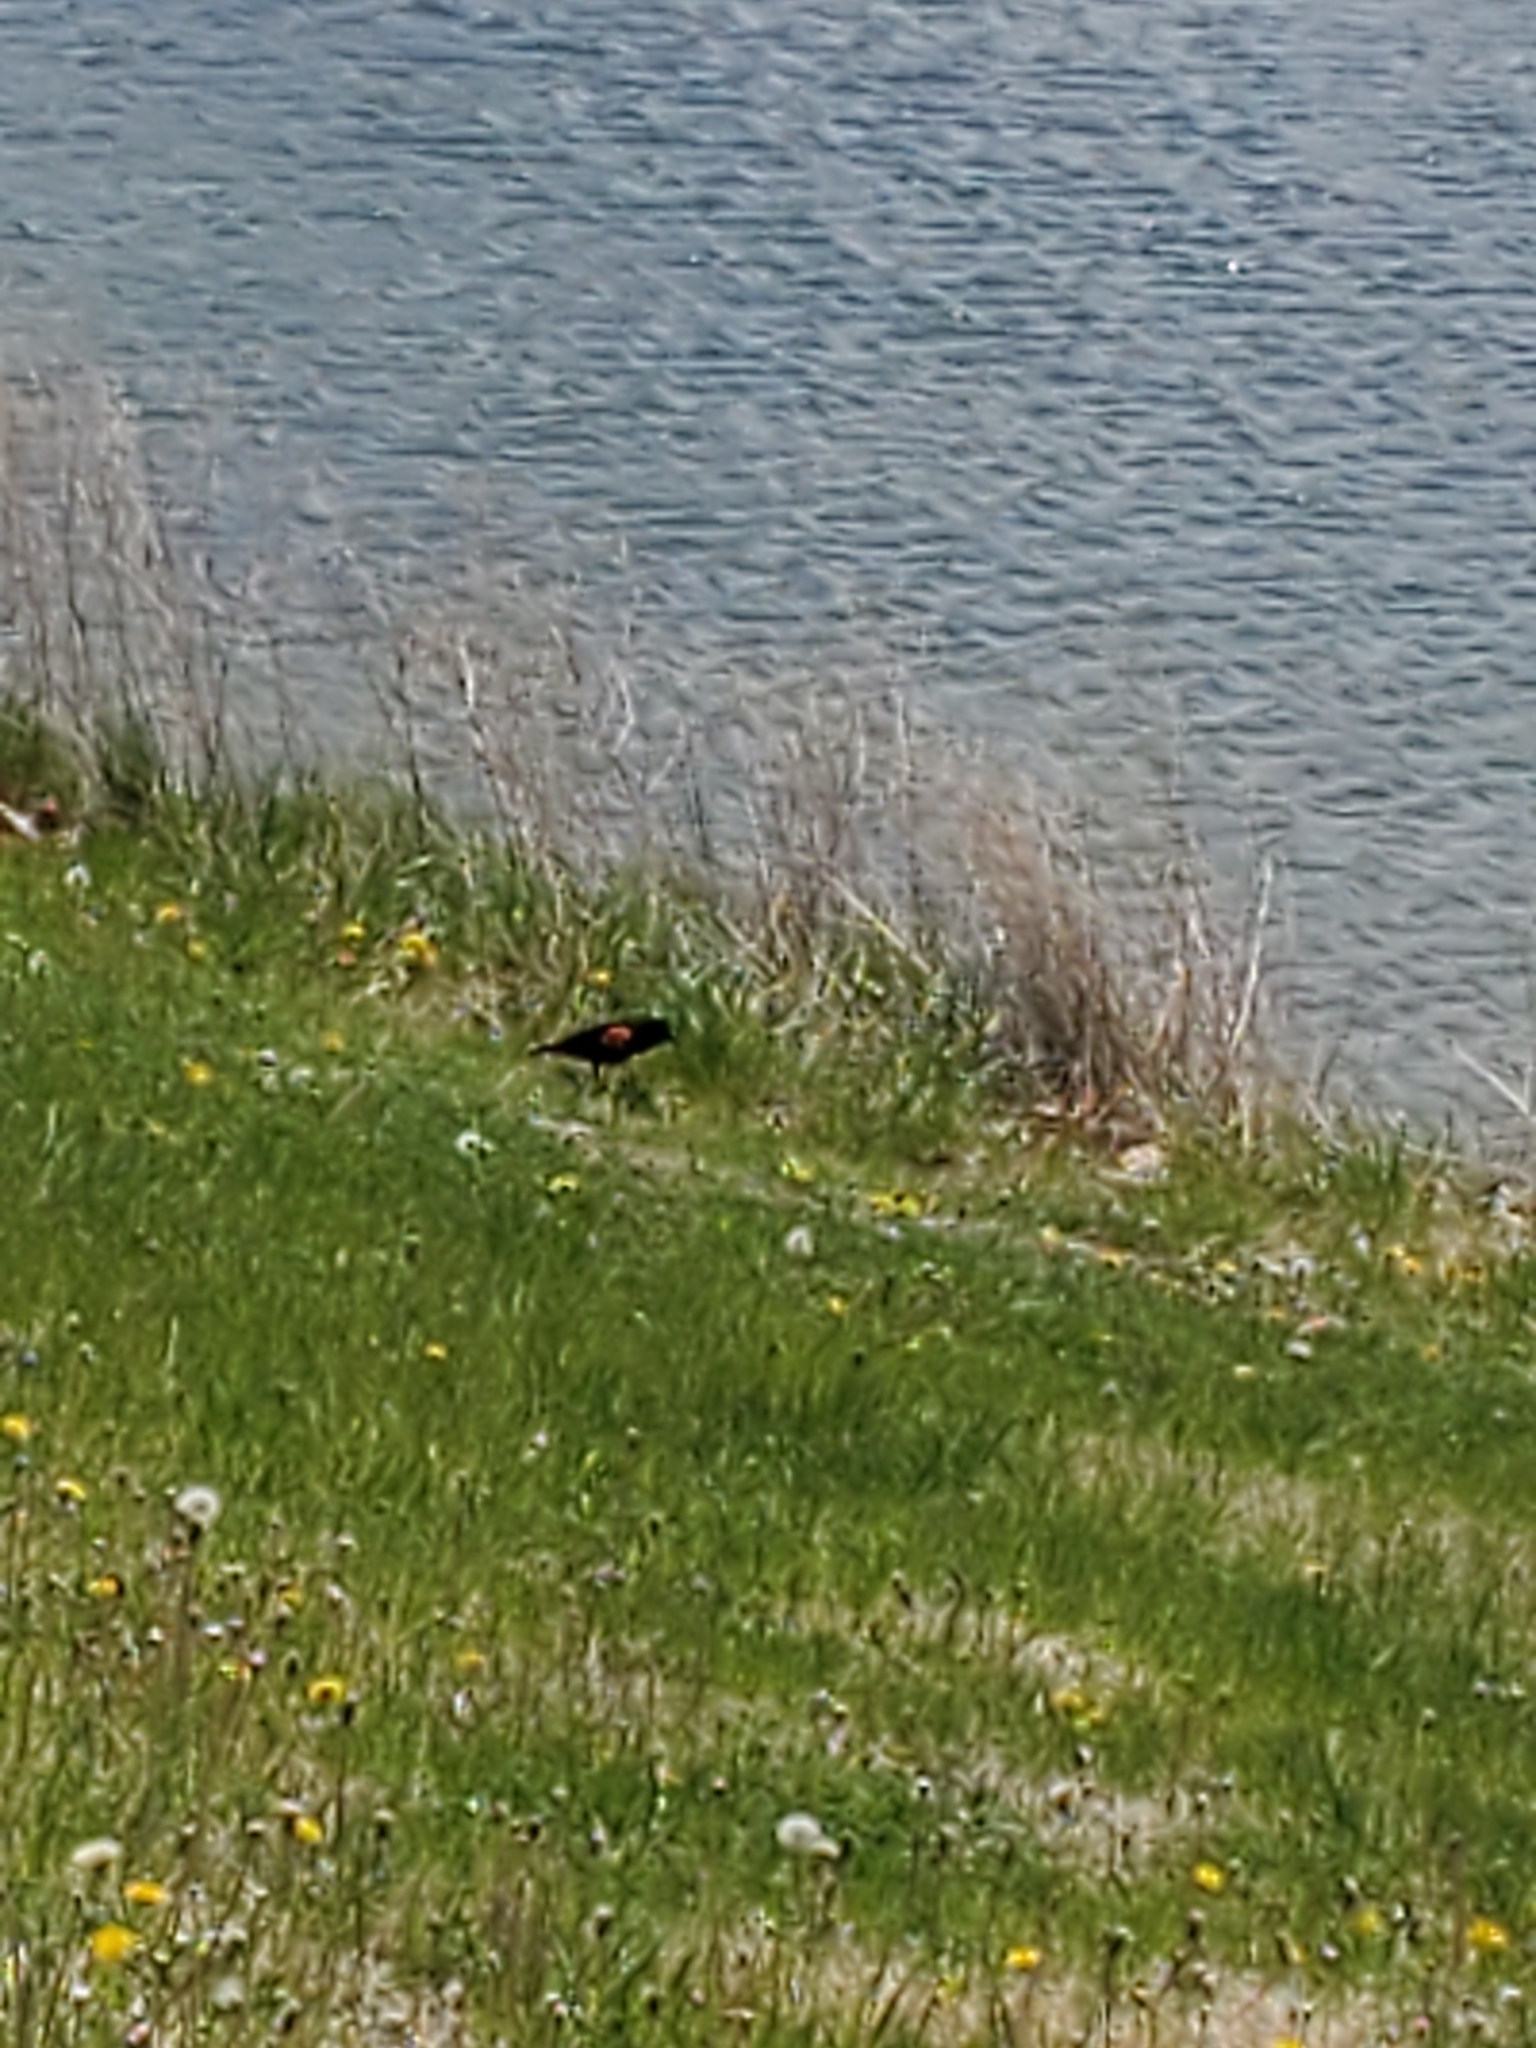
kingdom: Animalia
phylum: Chordata
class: Aves
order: Passeriformes
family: Icteridae
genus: Agelaius
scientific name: Agelaius phoeniceus
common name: Red-winged blackbird
